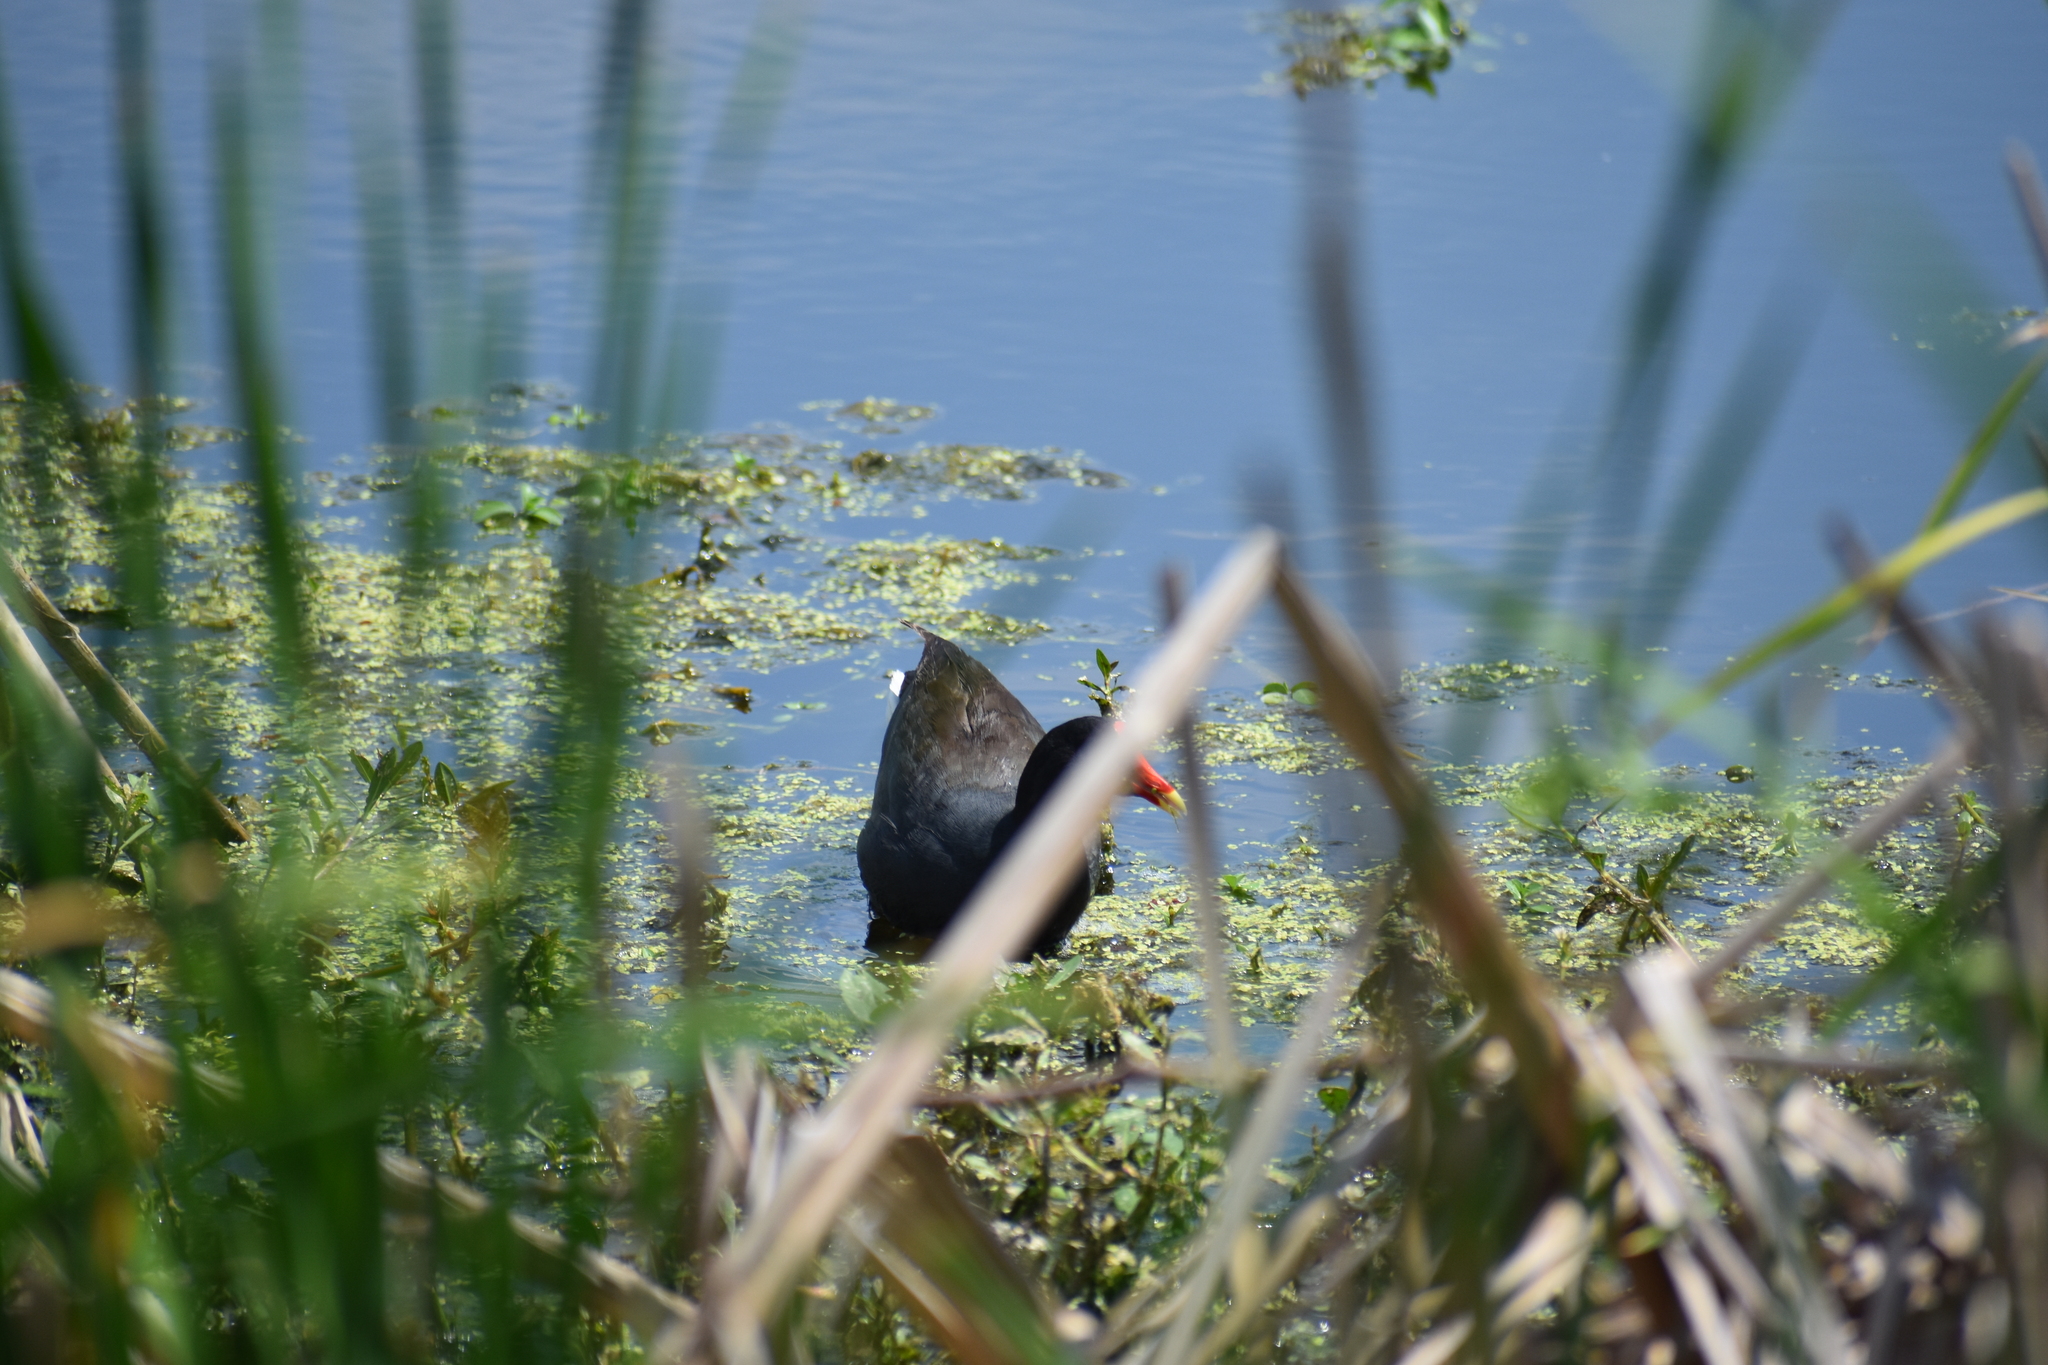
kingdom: Animalia
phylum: Chordata
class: Aves
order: Gruiformes
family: Rallidae
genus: Gallinula
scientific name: Gallinula chloropus
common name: Common moorhen
